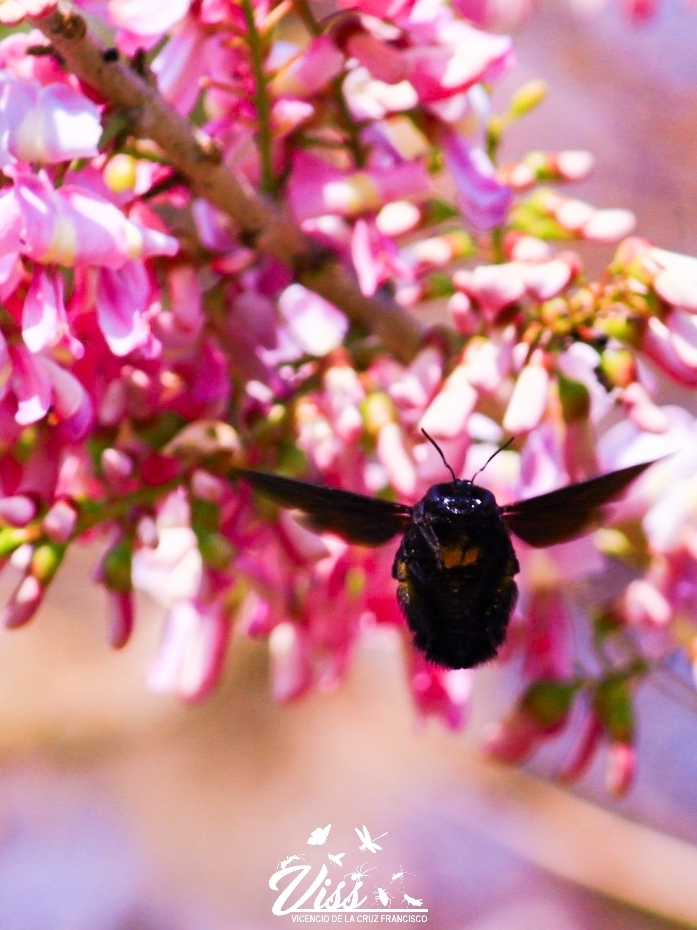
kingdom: Animalia
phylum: Arthropoda
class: Insecta
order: Hymenoptera
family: Apidae
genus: Xylocopa
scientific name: Xylocopa nautlana
